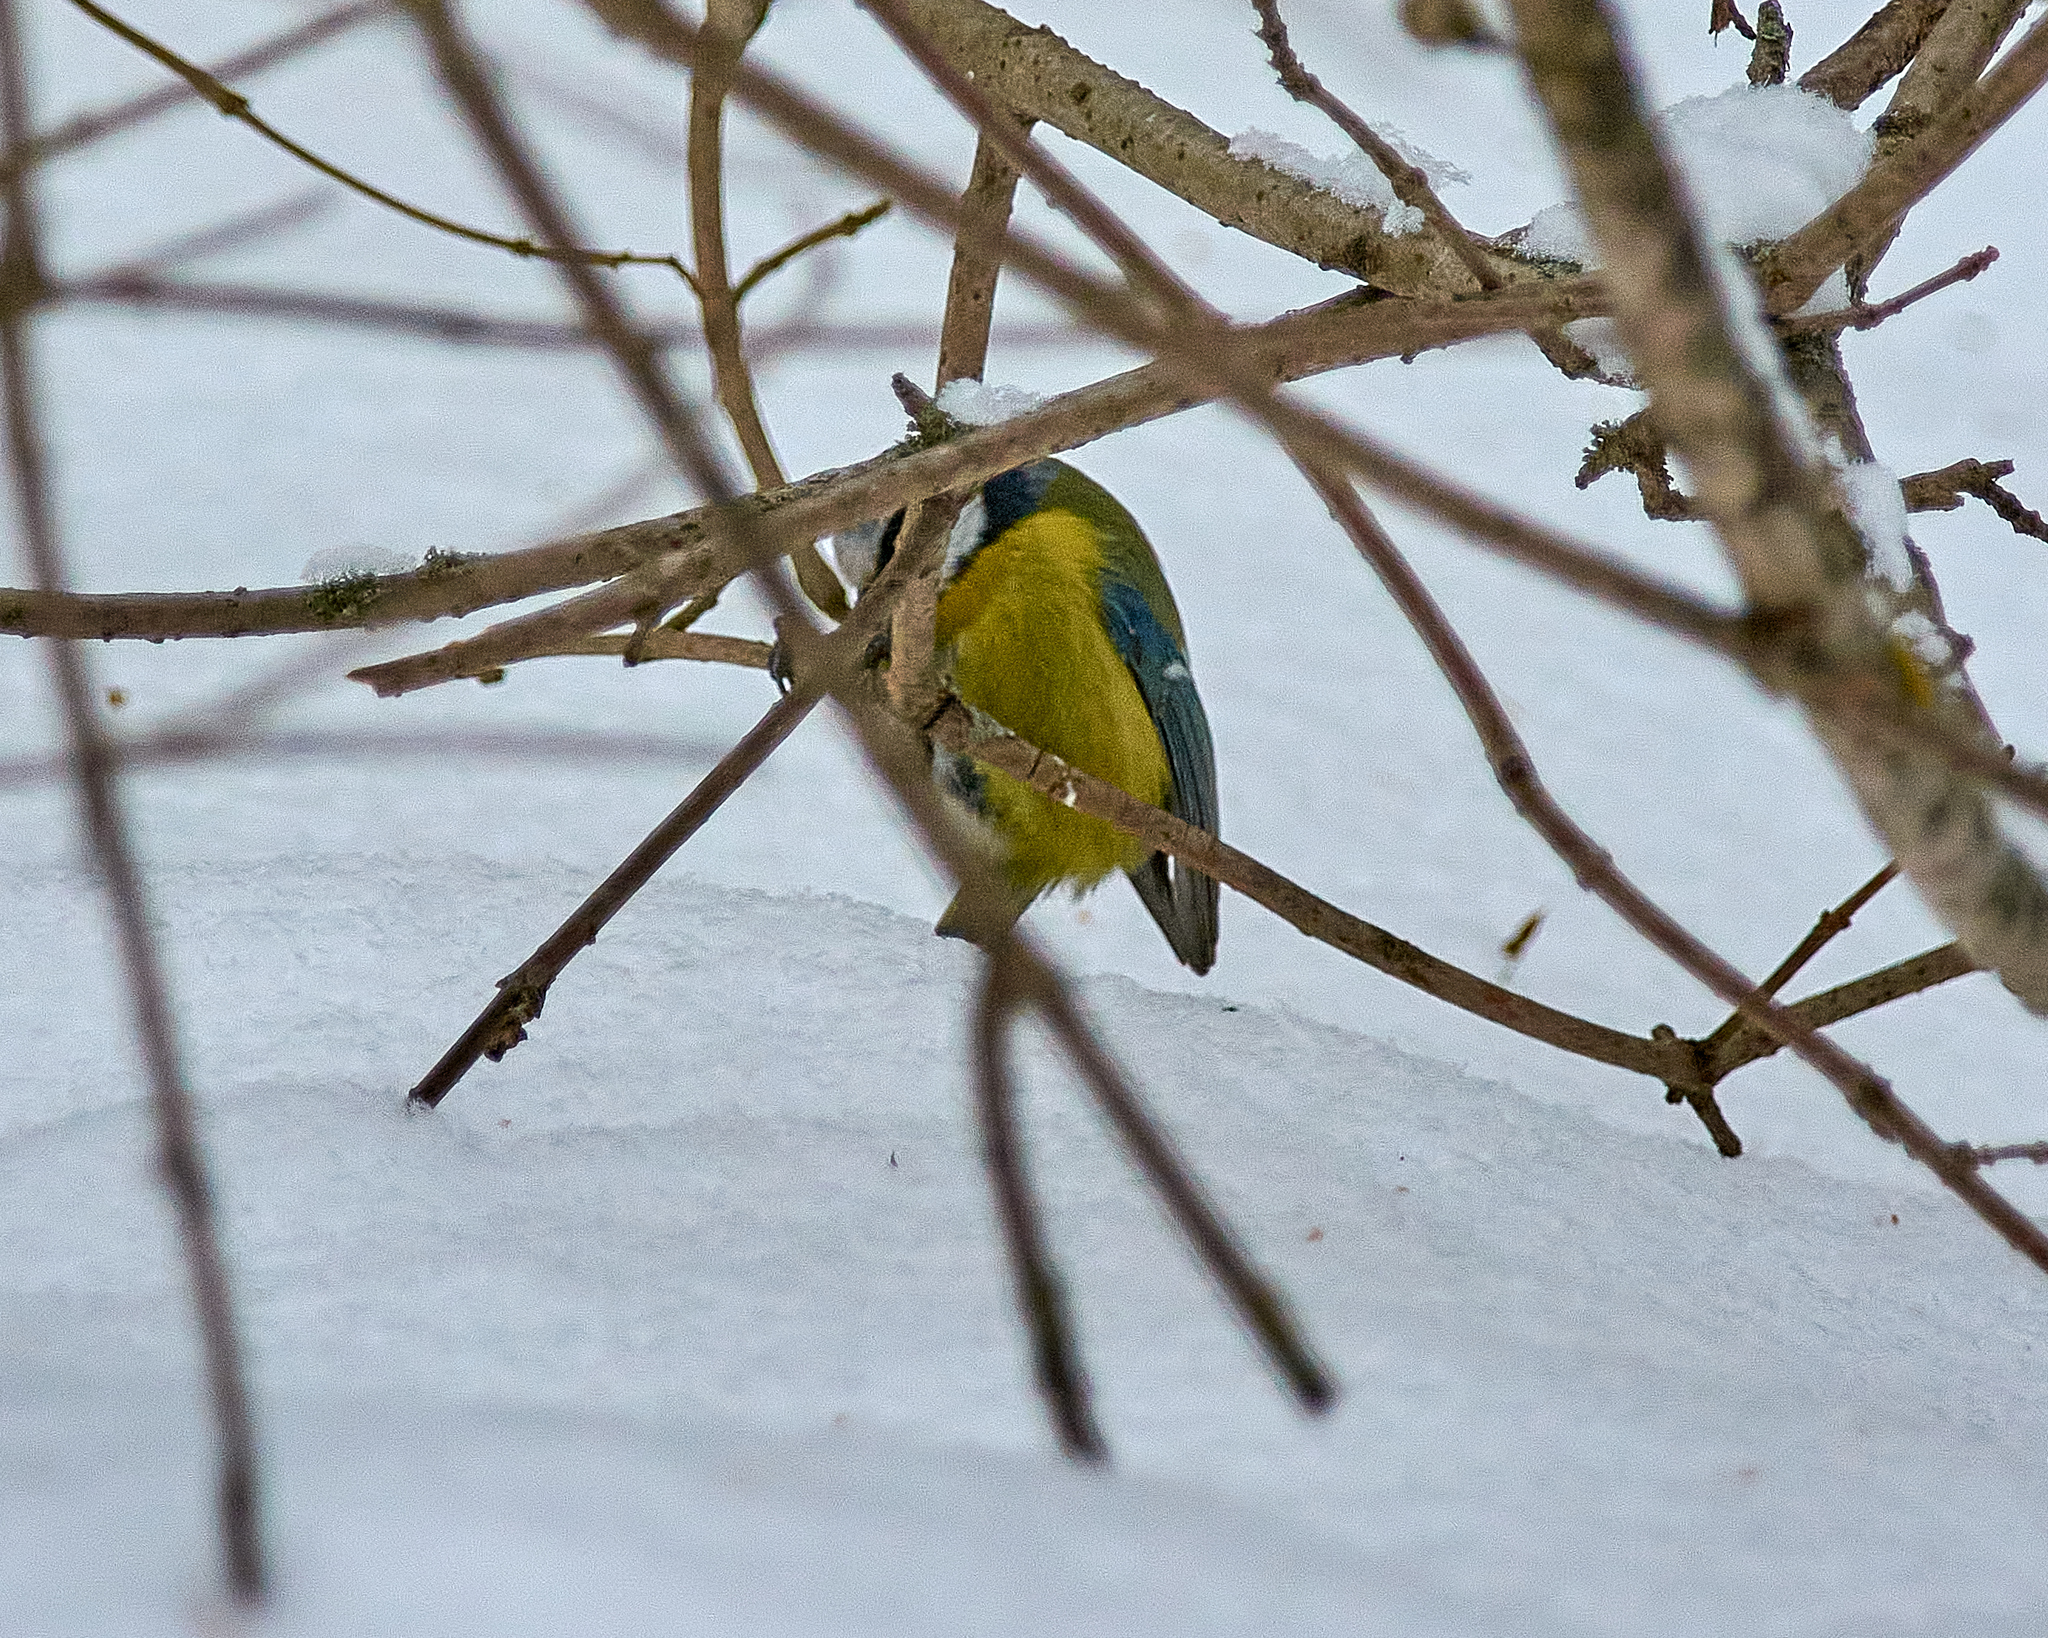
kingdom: Animalia
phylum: Chordata
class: Aves
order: Passeriformes
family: Paridae
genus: Cyanistes
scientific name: Cyanistes caeruleus
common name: Eurasian blue tit
